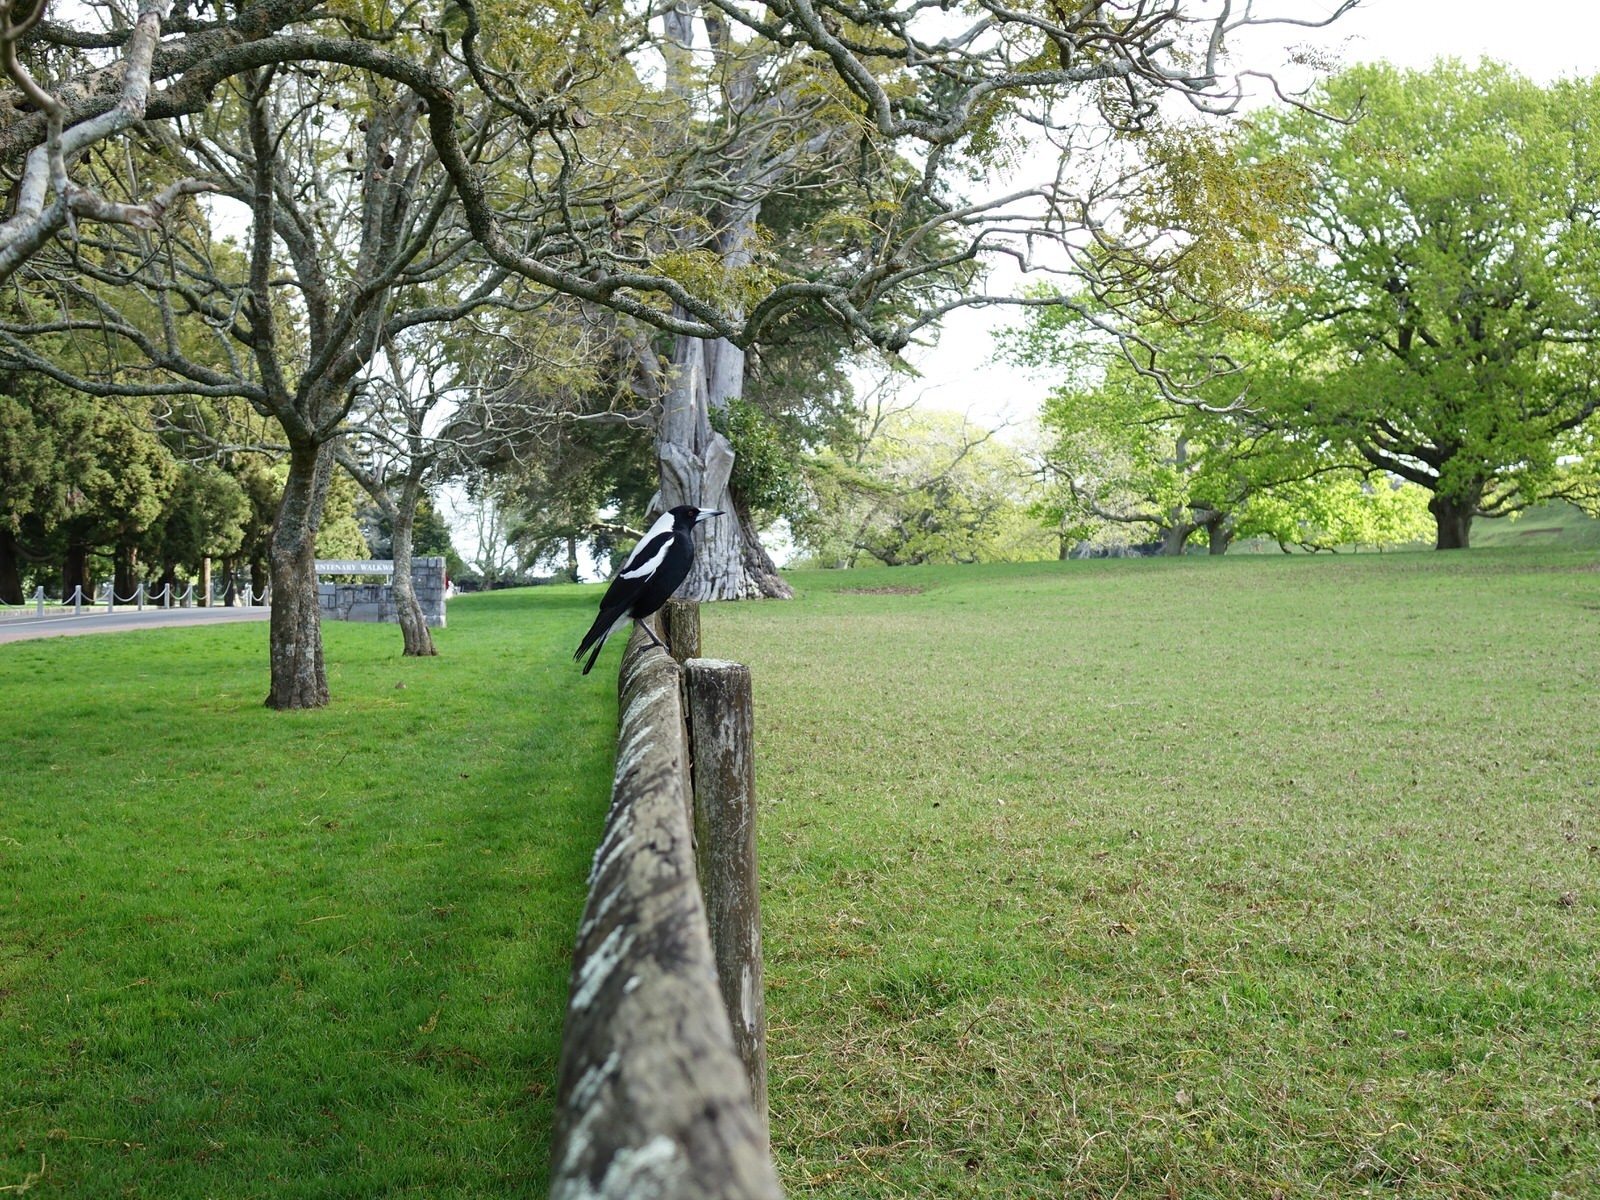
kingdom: Animalia
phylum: Chordata
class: Aves
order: Passeriformes
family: Cracticidae
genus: Gymnorhina
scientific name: Gymnorhina tibicen
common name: Australian magpie
